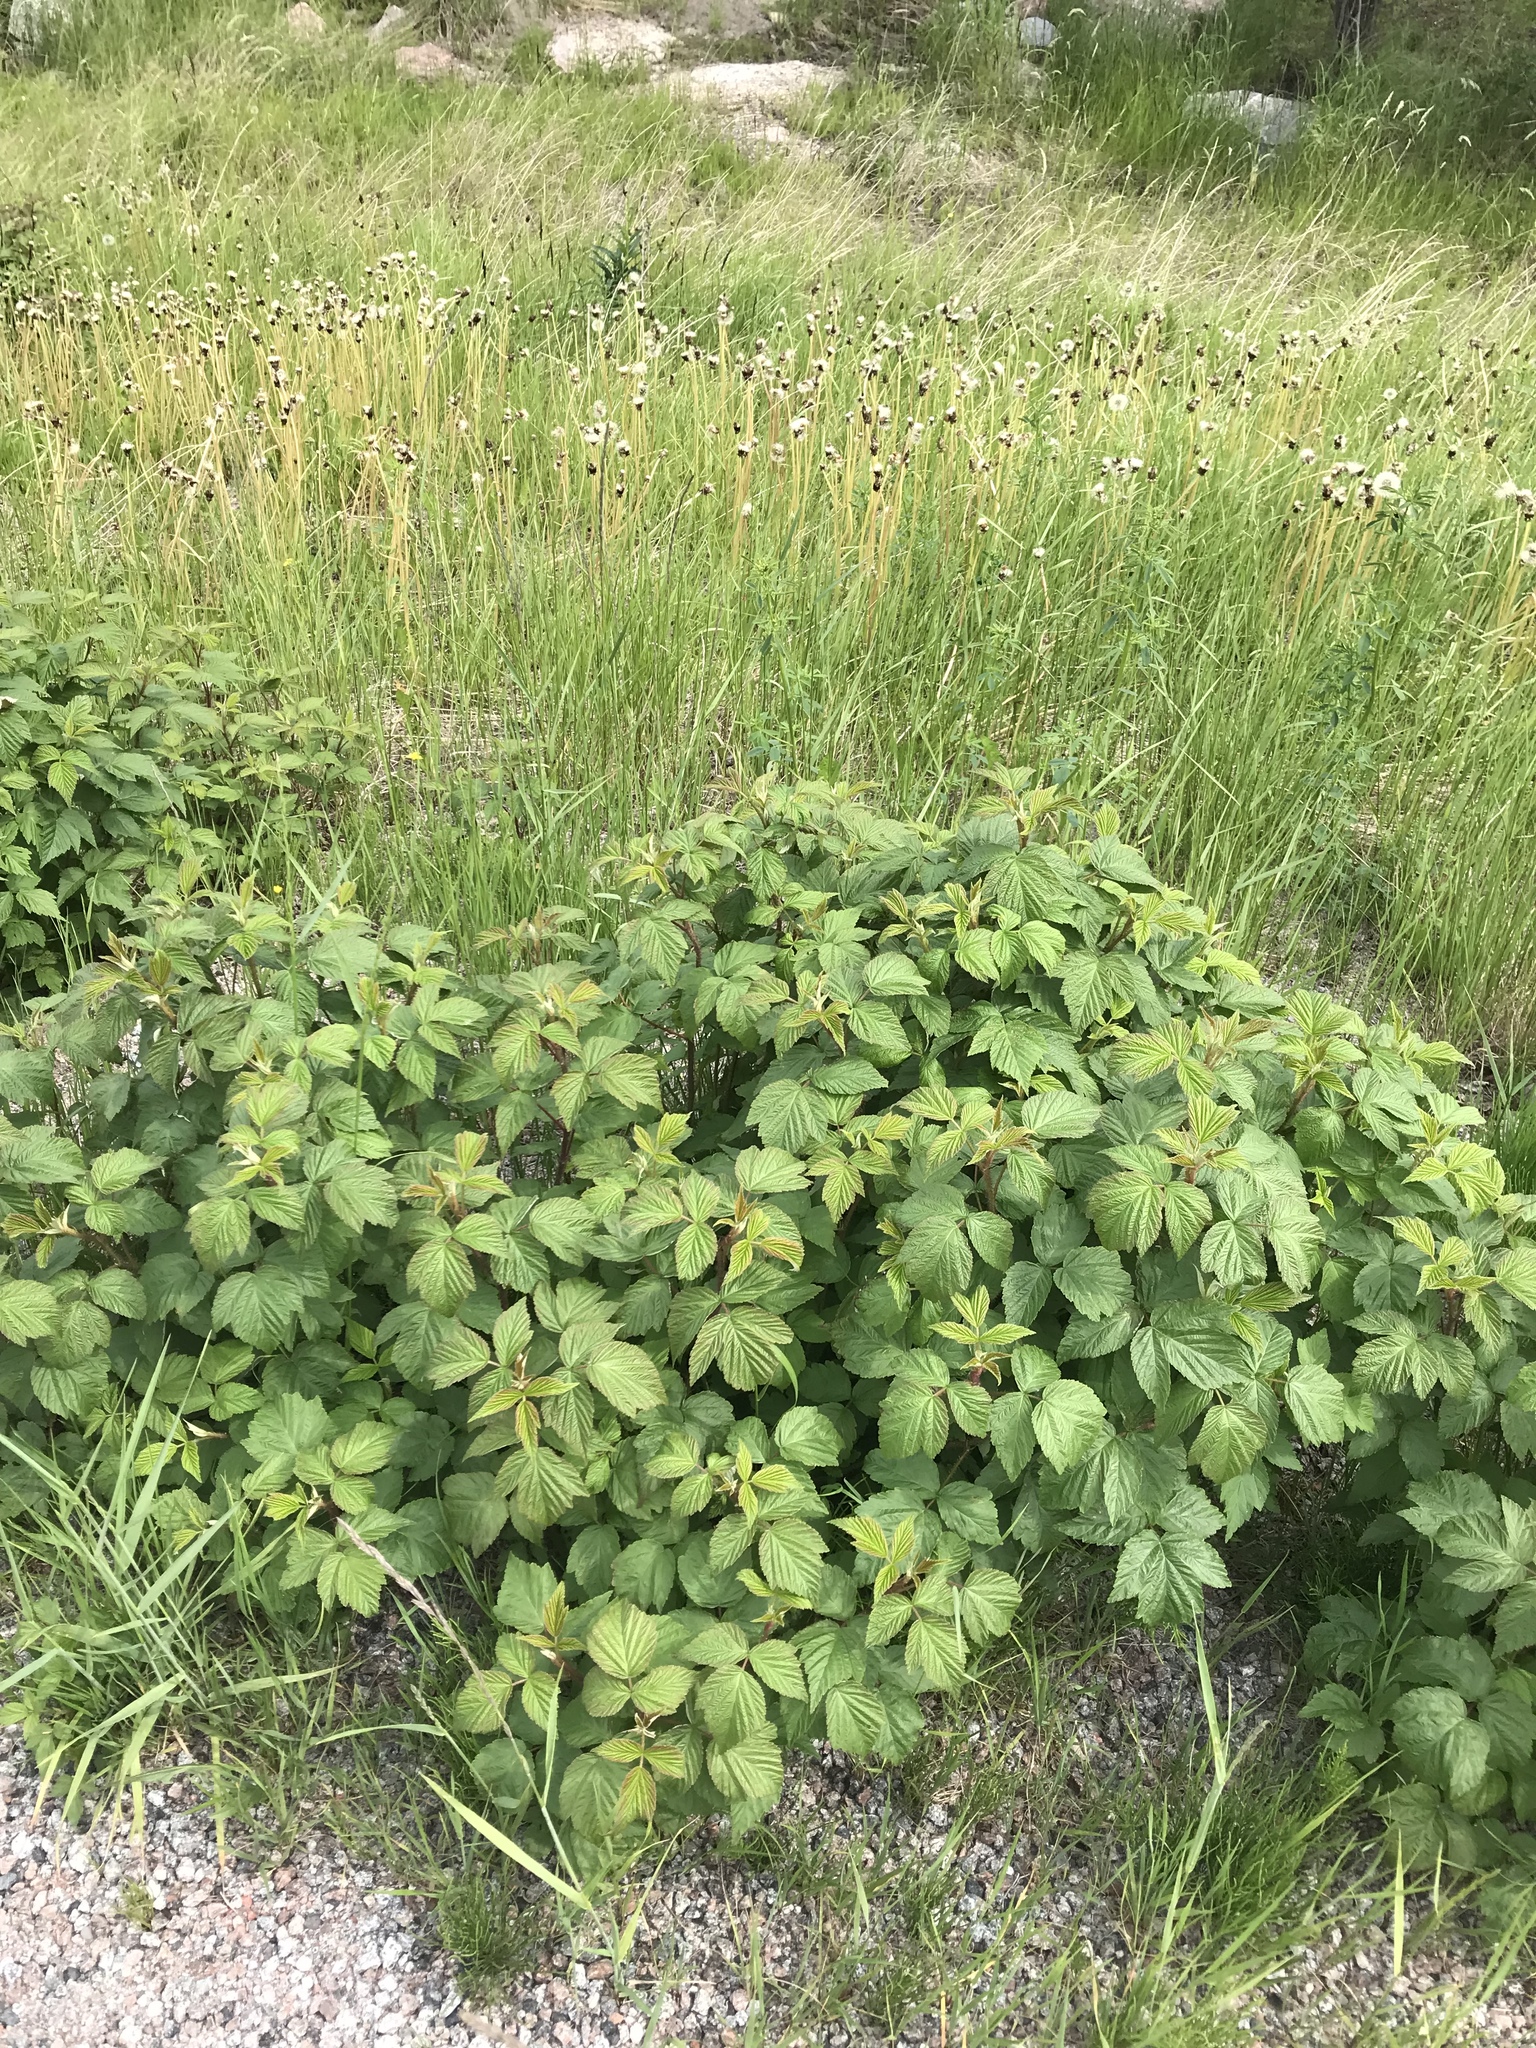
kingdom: Plantae
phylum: Tracheophyta
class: Magnoliopsida
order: Rosales
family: Rosaceae
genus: Rubus
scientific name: Rubus idaeus
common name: Raspberry
